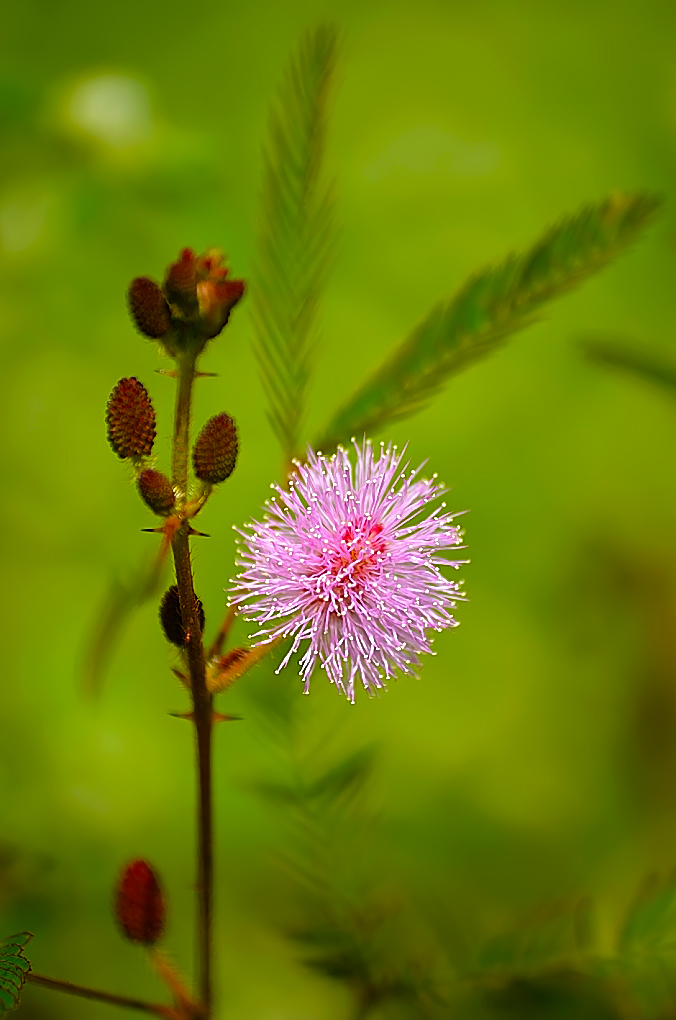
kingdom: Plantae
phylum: Tracheophyta
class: Magnoliopsida
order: Fabales
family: Fabaceae
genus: Mimosa
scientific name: Mimosa pudica
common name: Sensitive plant
